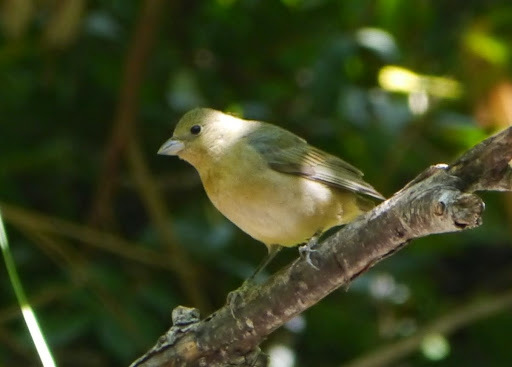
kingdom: Animalia
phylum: Chordata
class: Aves
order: Passeriformes
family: Cardinalidae
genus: Passerina
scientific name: Passerina ciris
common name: Painted bunting
